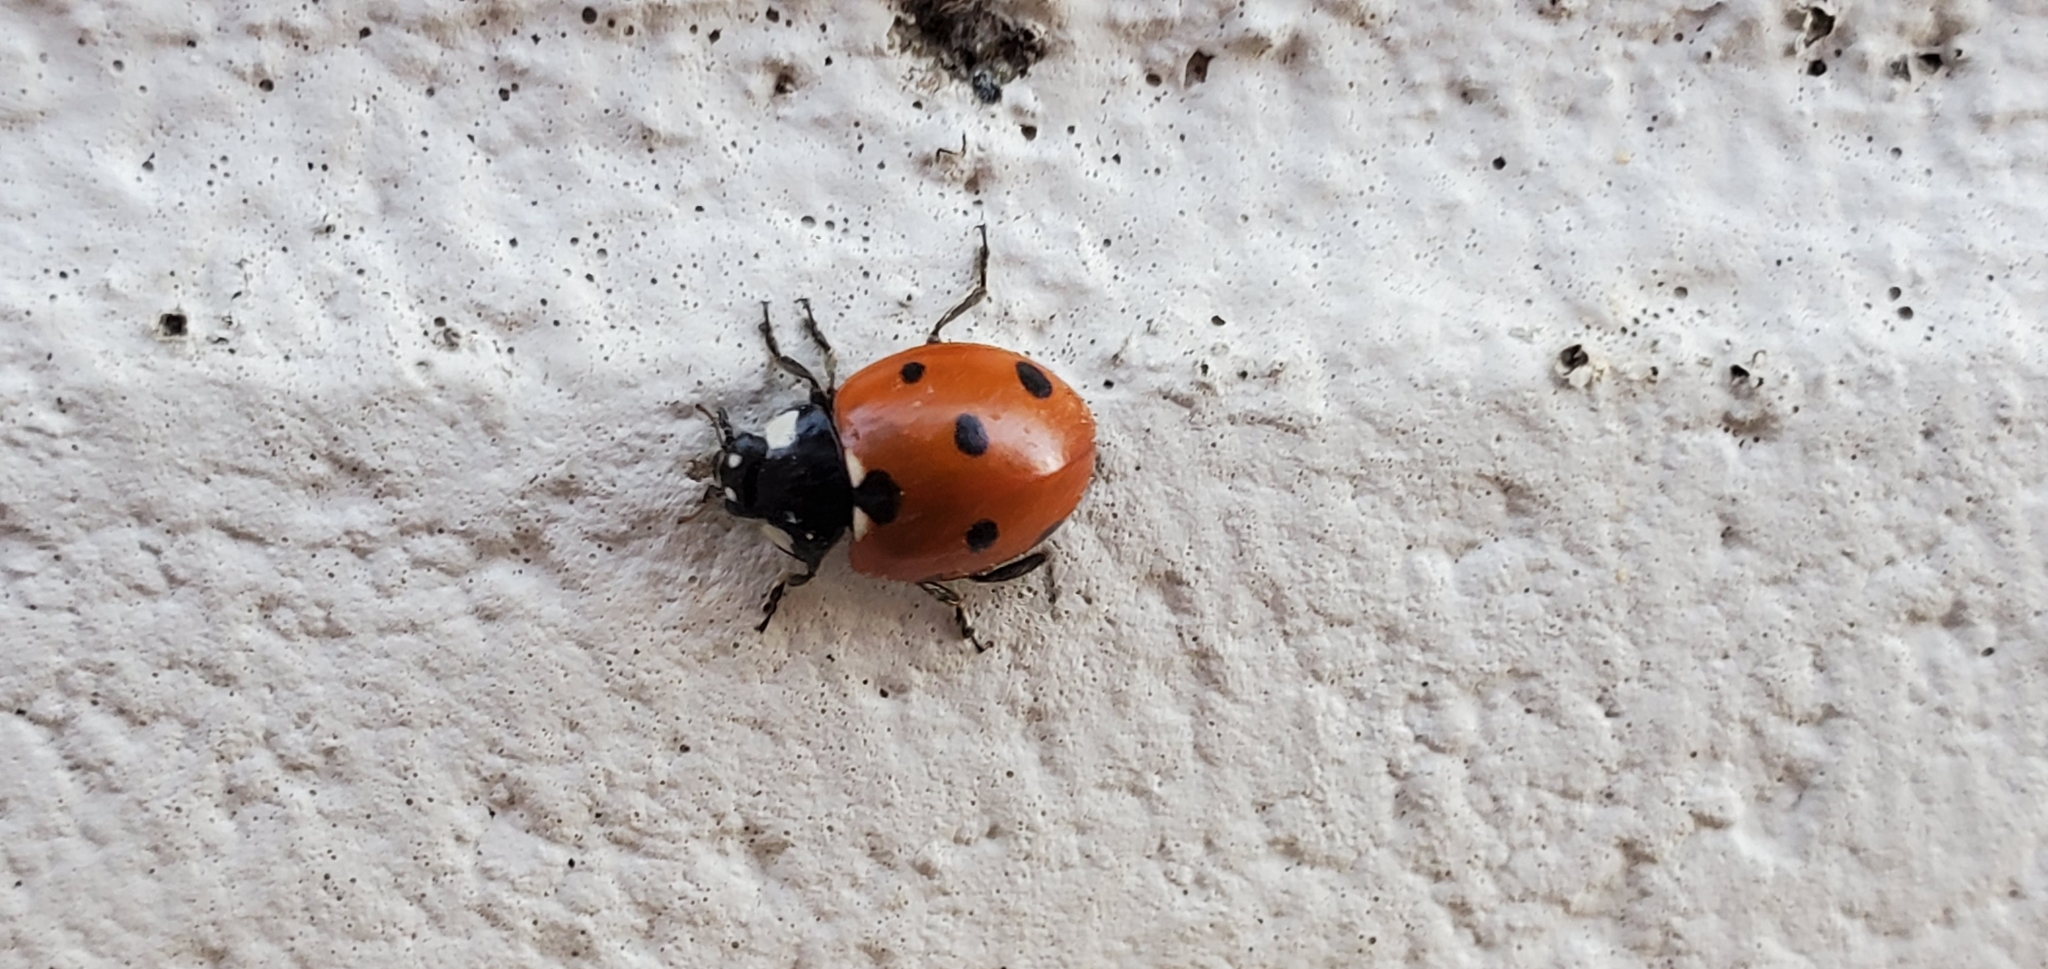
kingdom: Animalia
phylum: Arthropoda
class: Insecta
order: Coleoptera
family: Coccinellidae
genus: Coccinella
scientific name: Coccinella septempunctata
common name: Sevenspotted lady beetle
